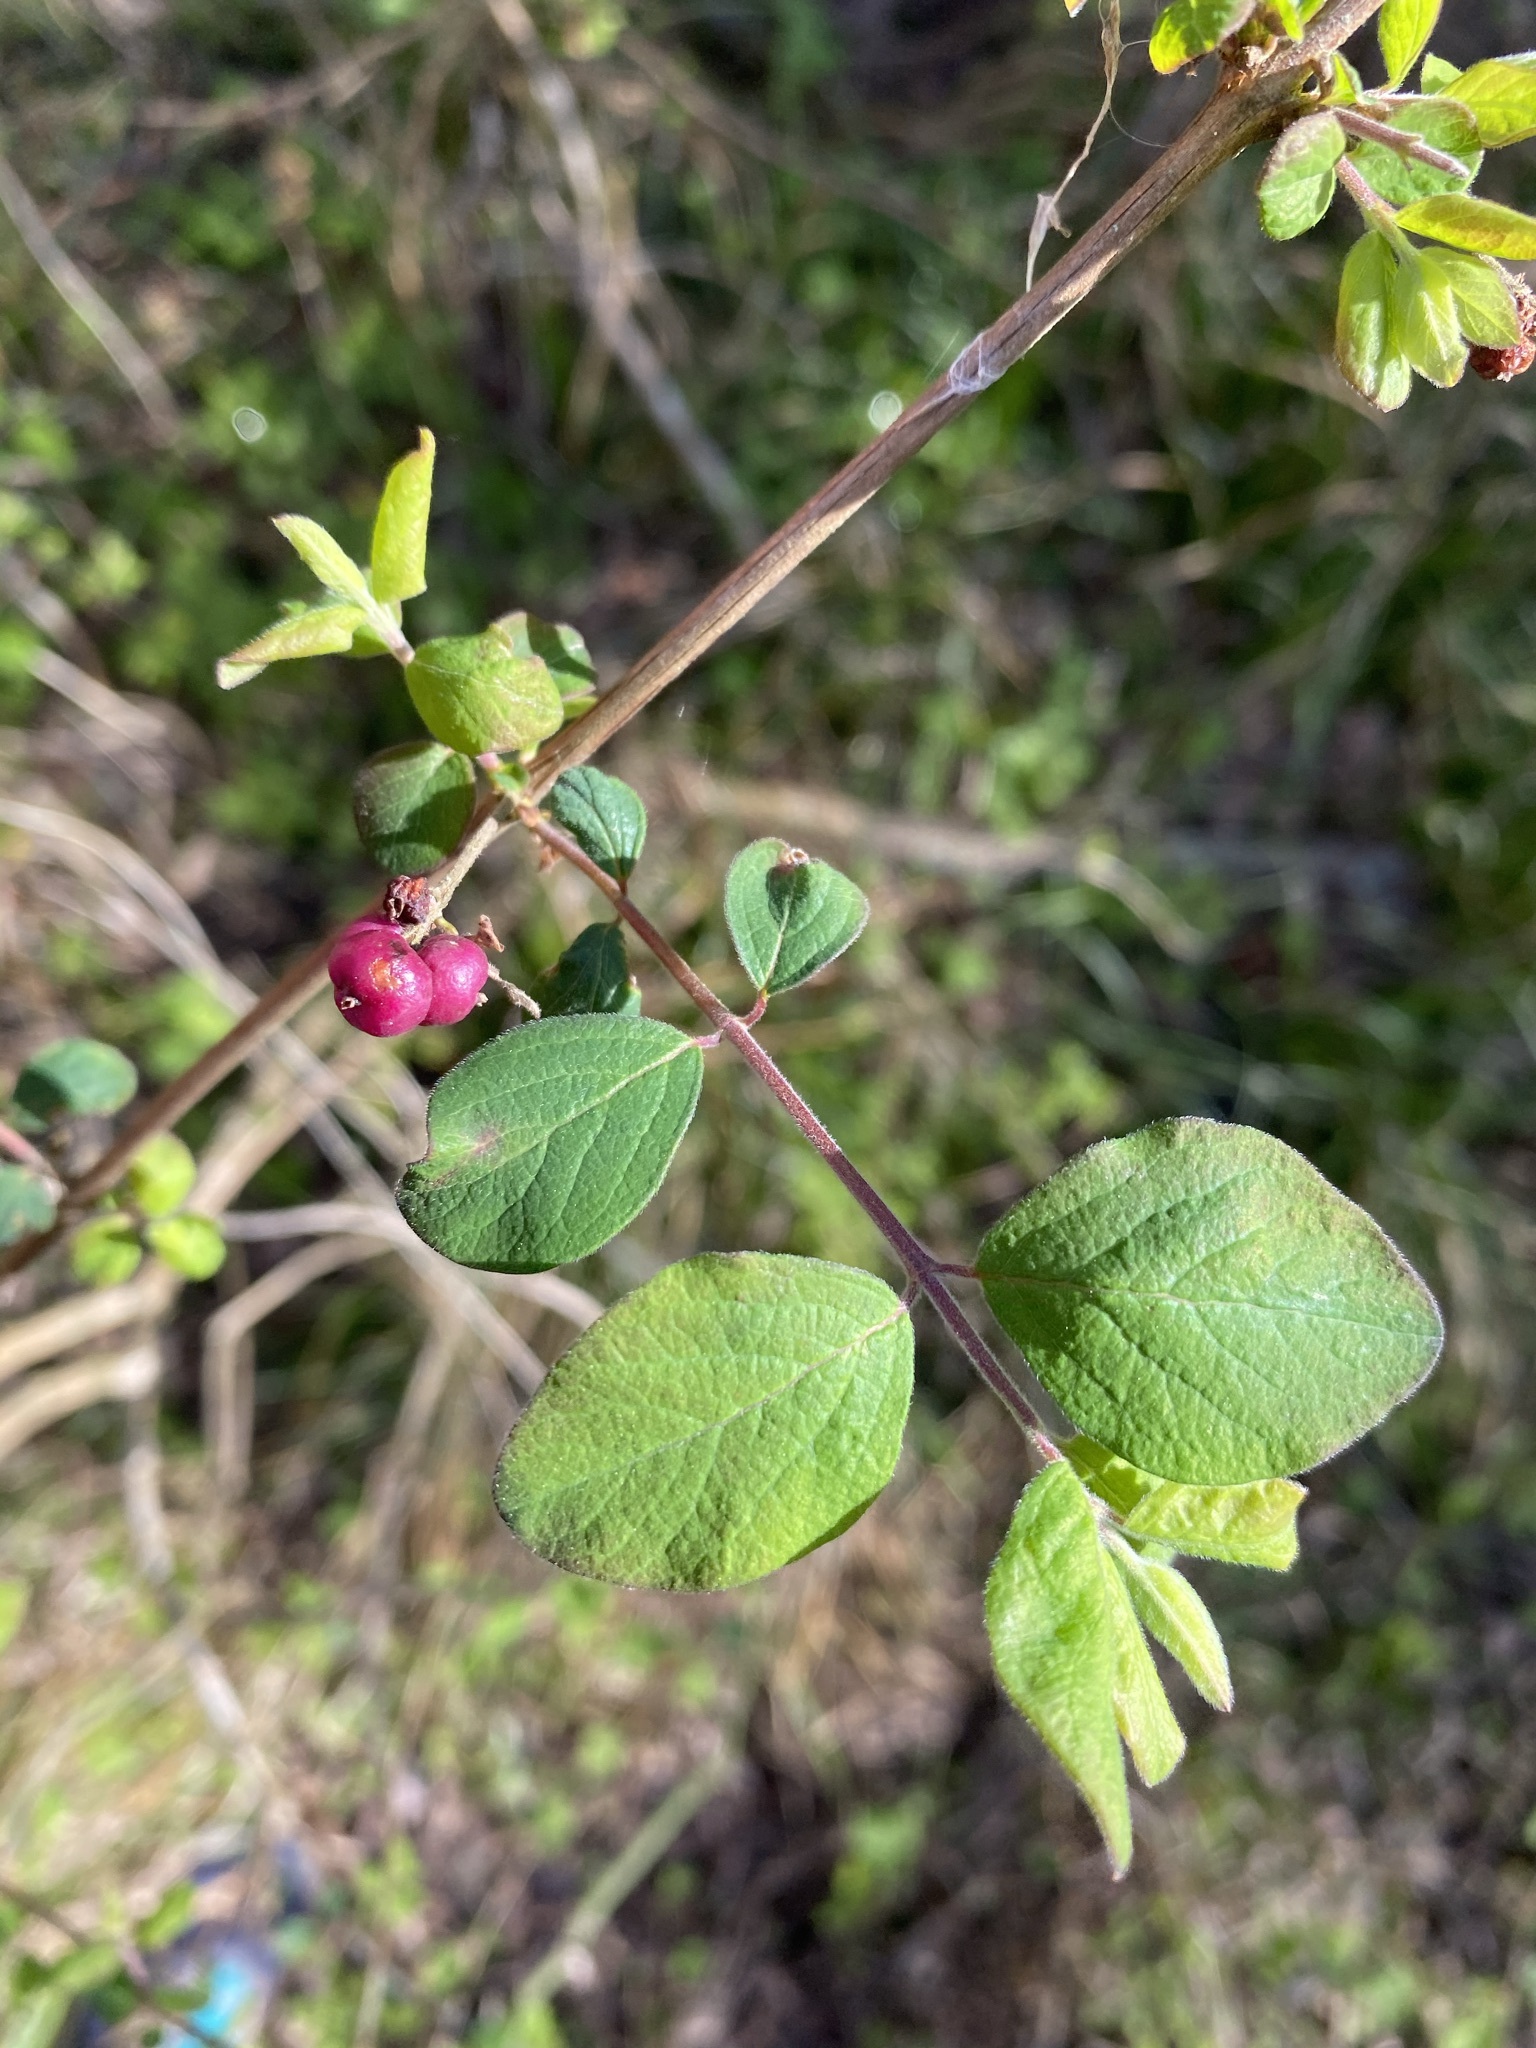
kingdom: Plantae
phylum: Tracheophyta
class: Magnoliopsida
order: Dipsacales
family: Caprifoliaceae
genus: Symphoricarpos
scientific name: Symphoricarpos orbiculatus
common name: Coralberry
